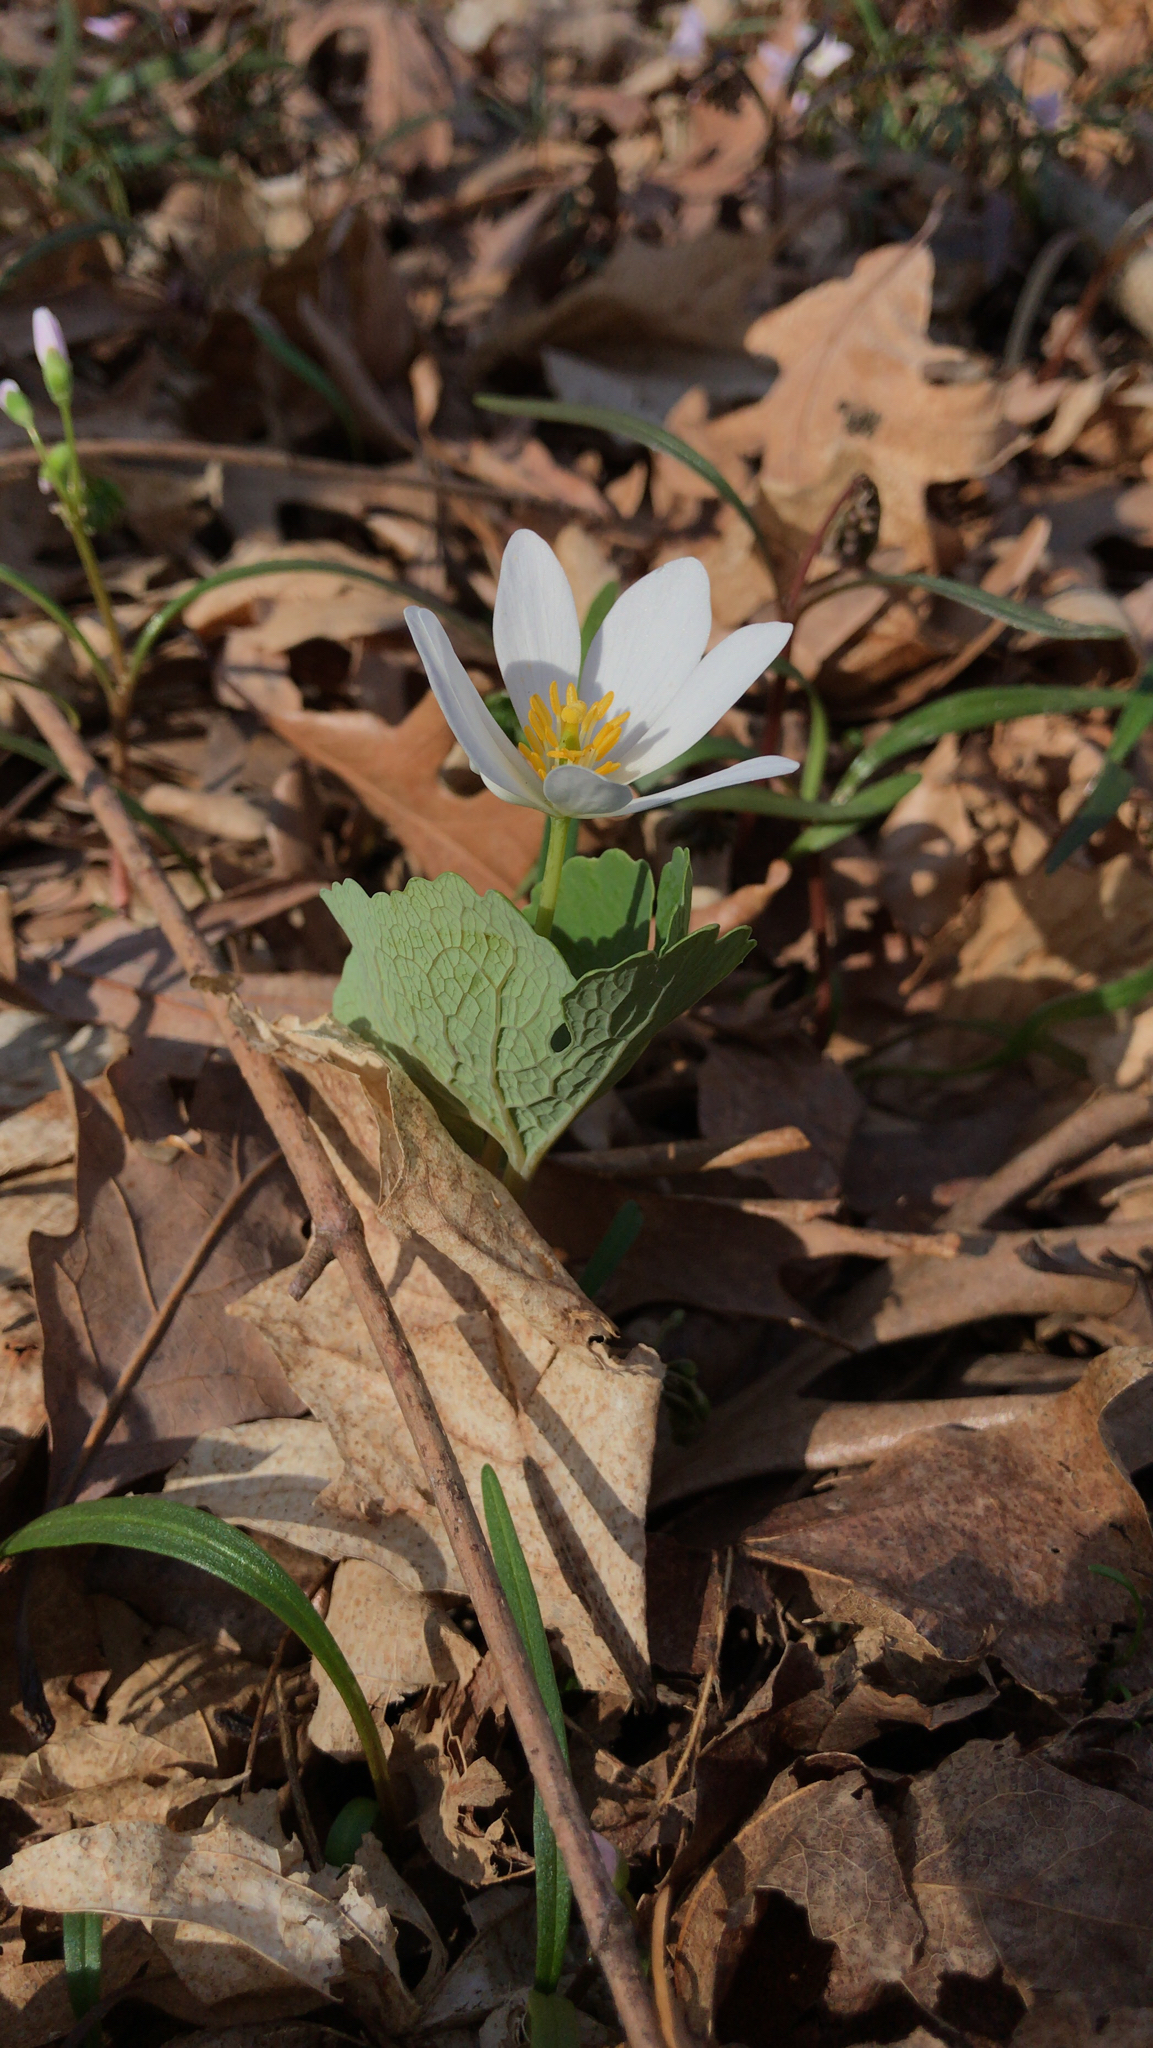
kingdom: Plantae
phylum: Tracheophyta
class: Magnoliopsida
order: Ranunculales
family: Papaveraceae
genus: Sanguinaria
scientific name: Sanguinaria canadensis
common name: Bloodroot
